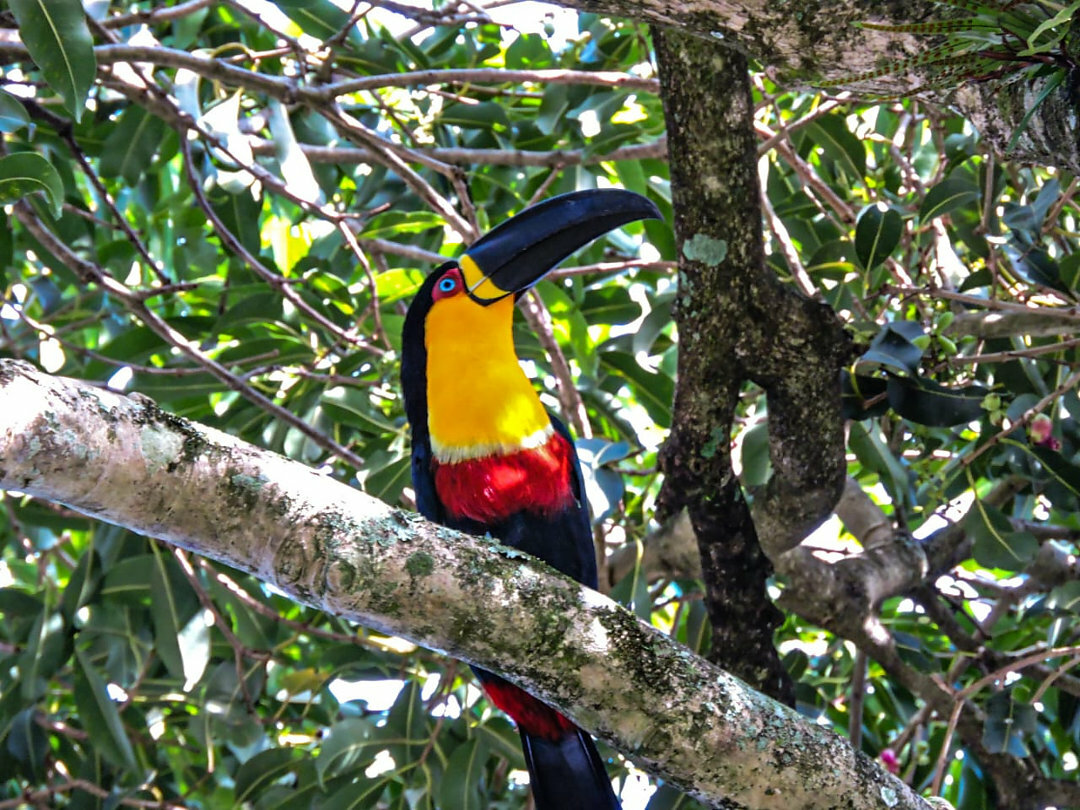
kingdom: Animalia
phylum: Chordata
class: Aves
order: Piciformes
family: Ramphastidae
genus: Ramphastos
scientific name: Ramphastos vitellinus
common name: Channel-billed toucan
